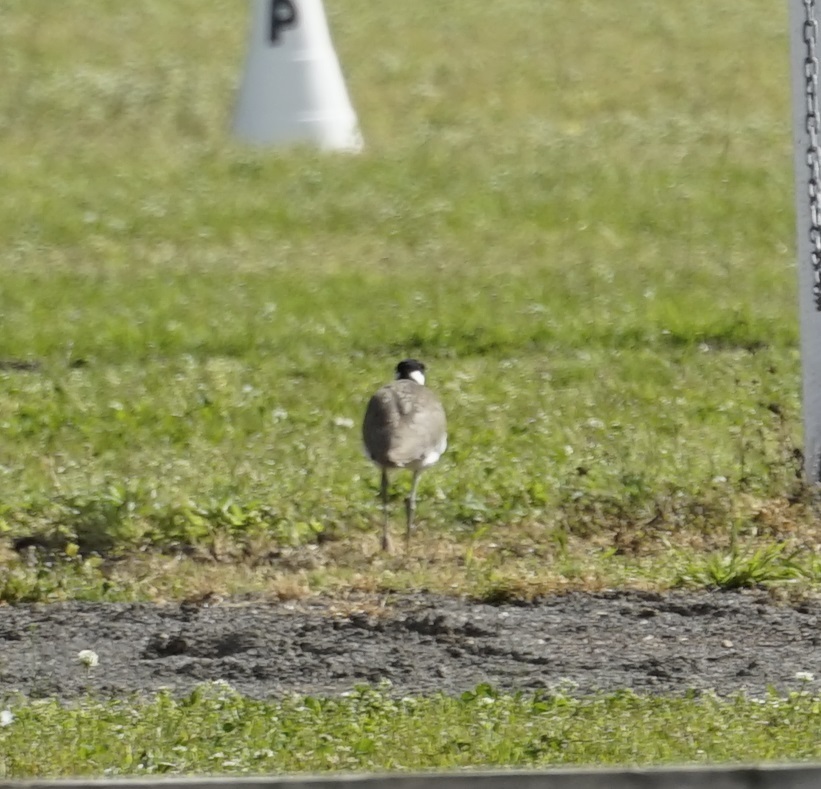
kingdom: Animalia
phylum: Chordata
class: Aves
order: Charadriiformes
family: Charadriidae
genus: Vanellus
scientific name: Vanellus miles
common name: Masked lapwing
